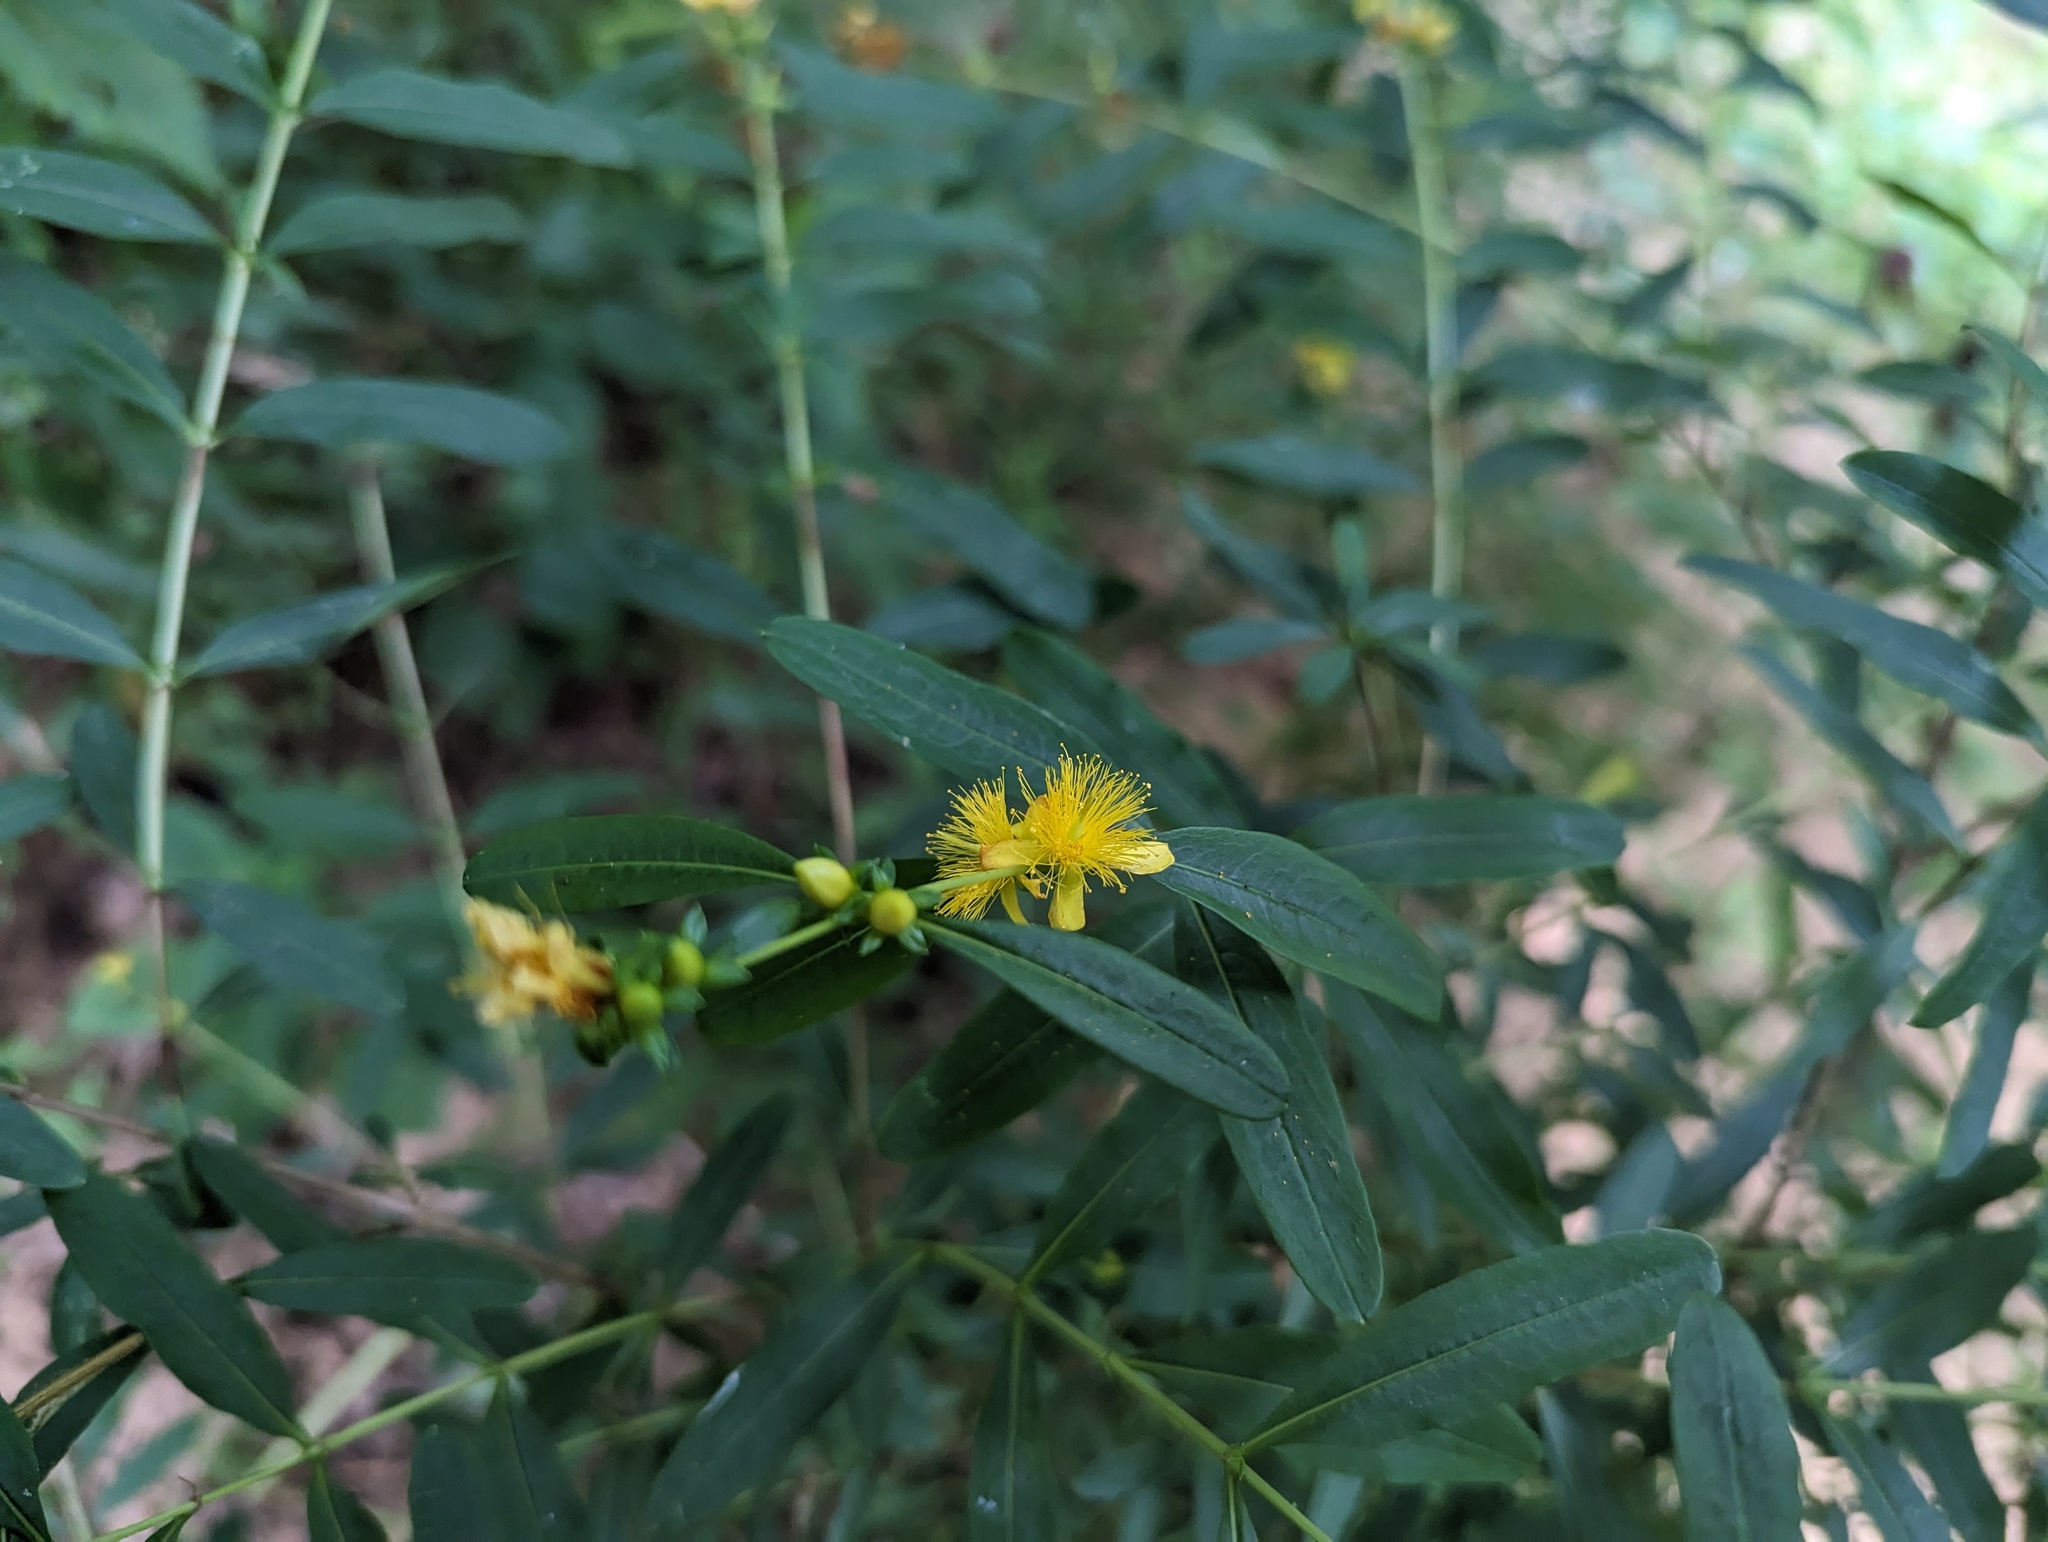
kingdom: Plantae
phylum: Tracheophyta
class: Magnoliopsida
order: Malpighiales
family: Hypericaceae
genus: Hypericum
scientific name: Hypericum prolificum
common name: Shrubby st. john's-wort
